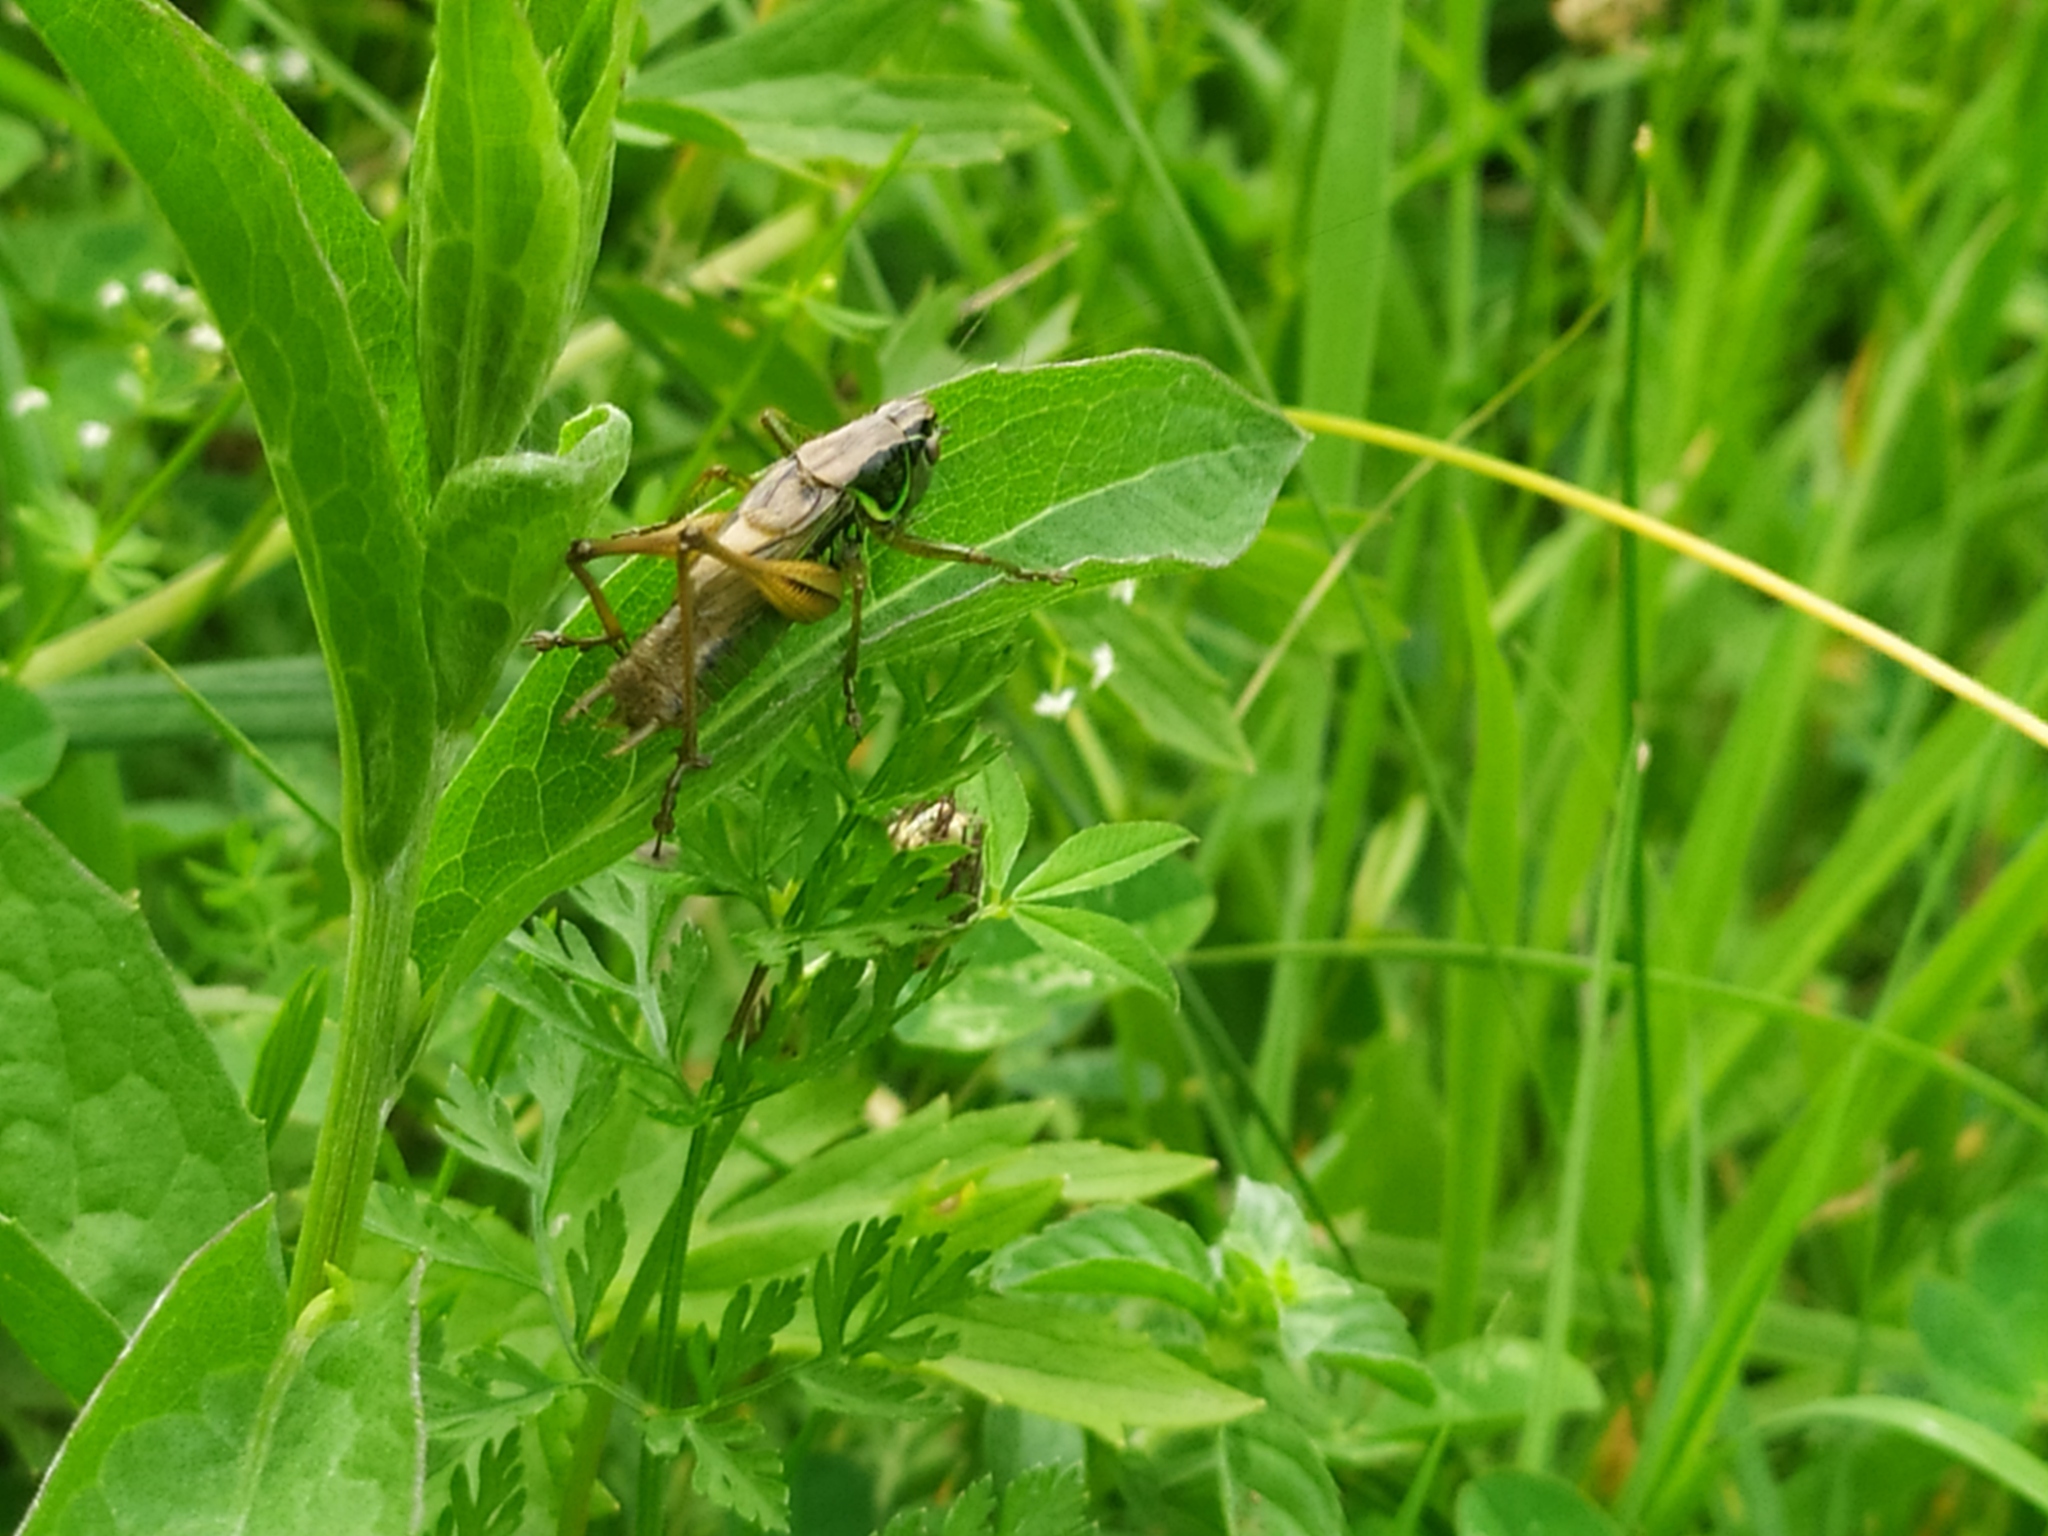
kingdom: Animalia
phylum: Arthropoda
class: Insecta
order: Orthoptera
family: Tettigoniidae
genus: Roeseliana
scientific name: Roeseliana roeselii
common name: Roesel's bush cricket
